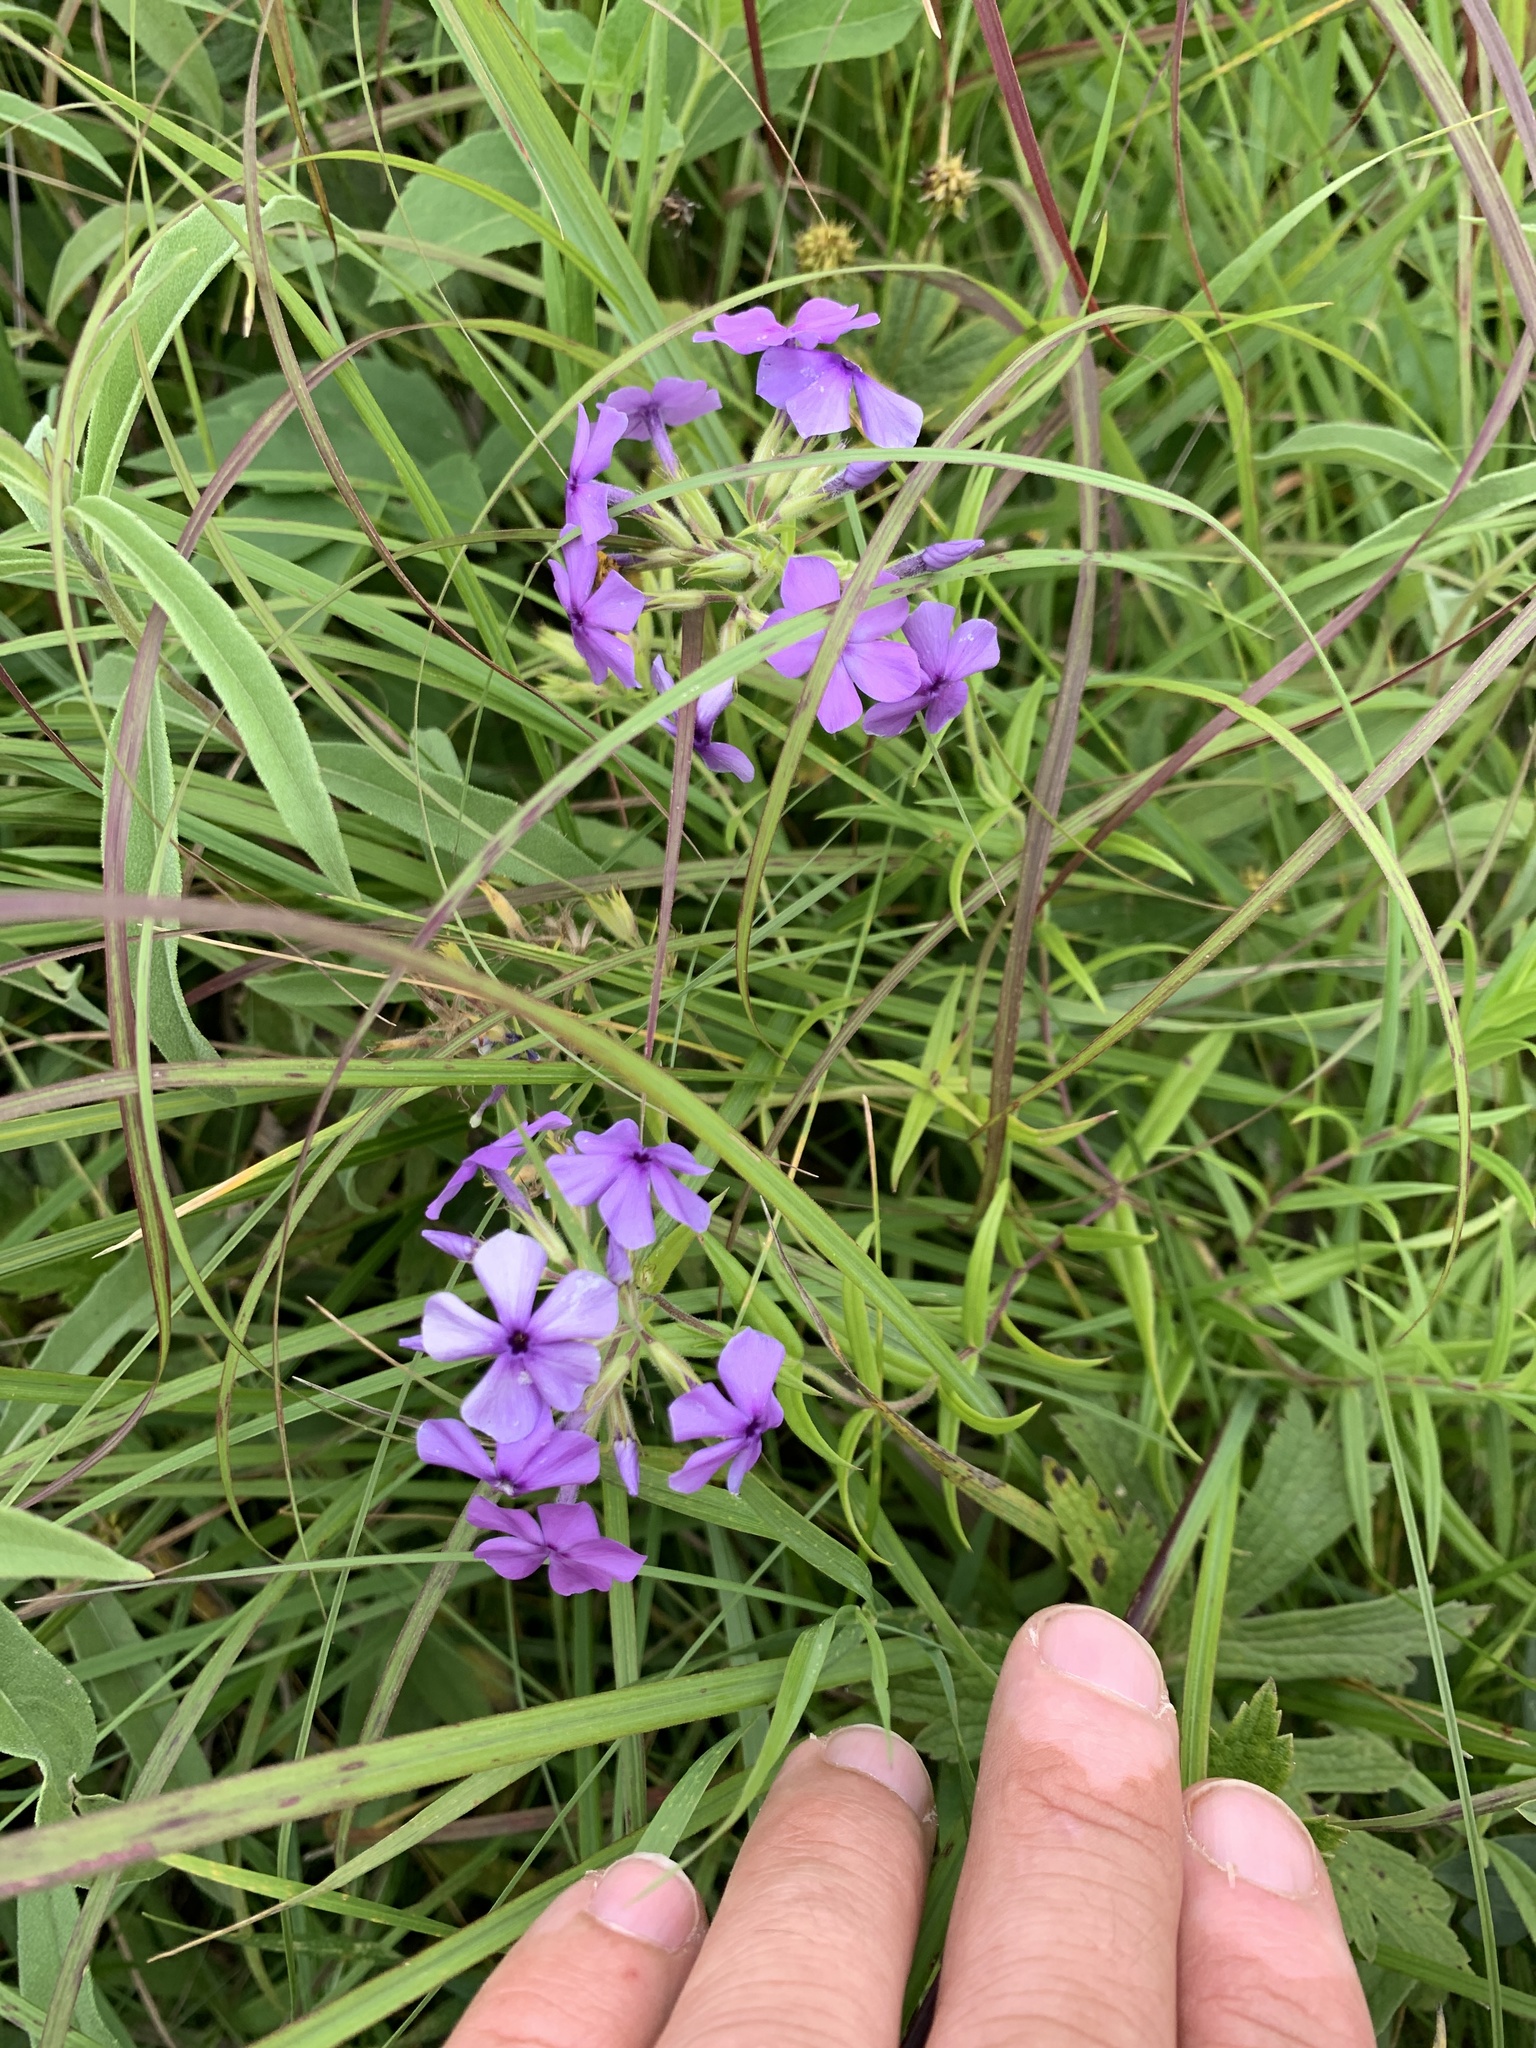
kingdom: Plantae
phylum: Tracheophyta
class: Magnoliopsida
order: Ericales
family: Polemoniaceae
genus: Phlox
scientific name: Phlox pilosa
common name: Prairie phlox
